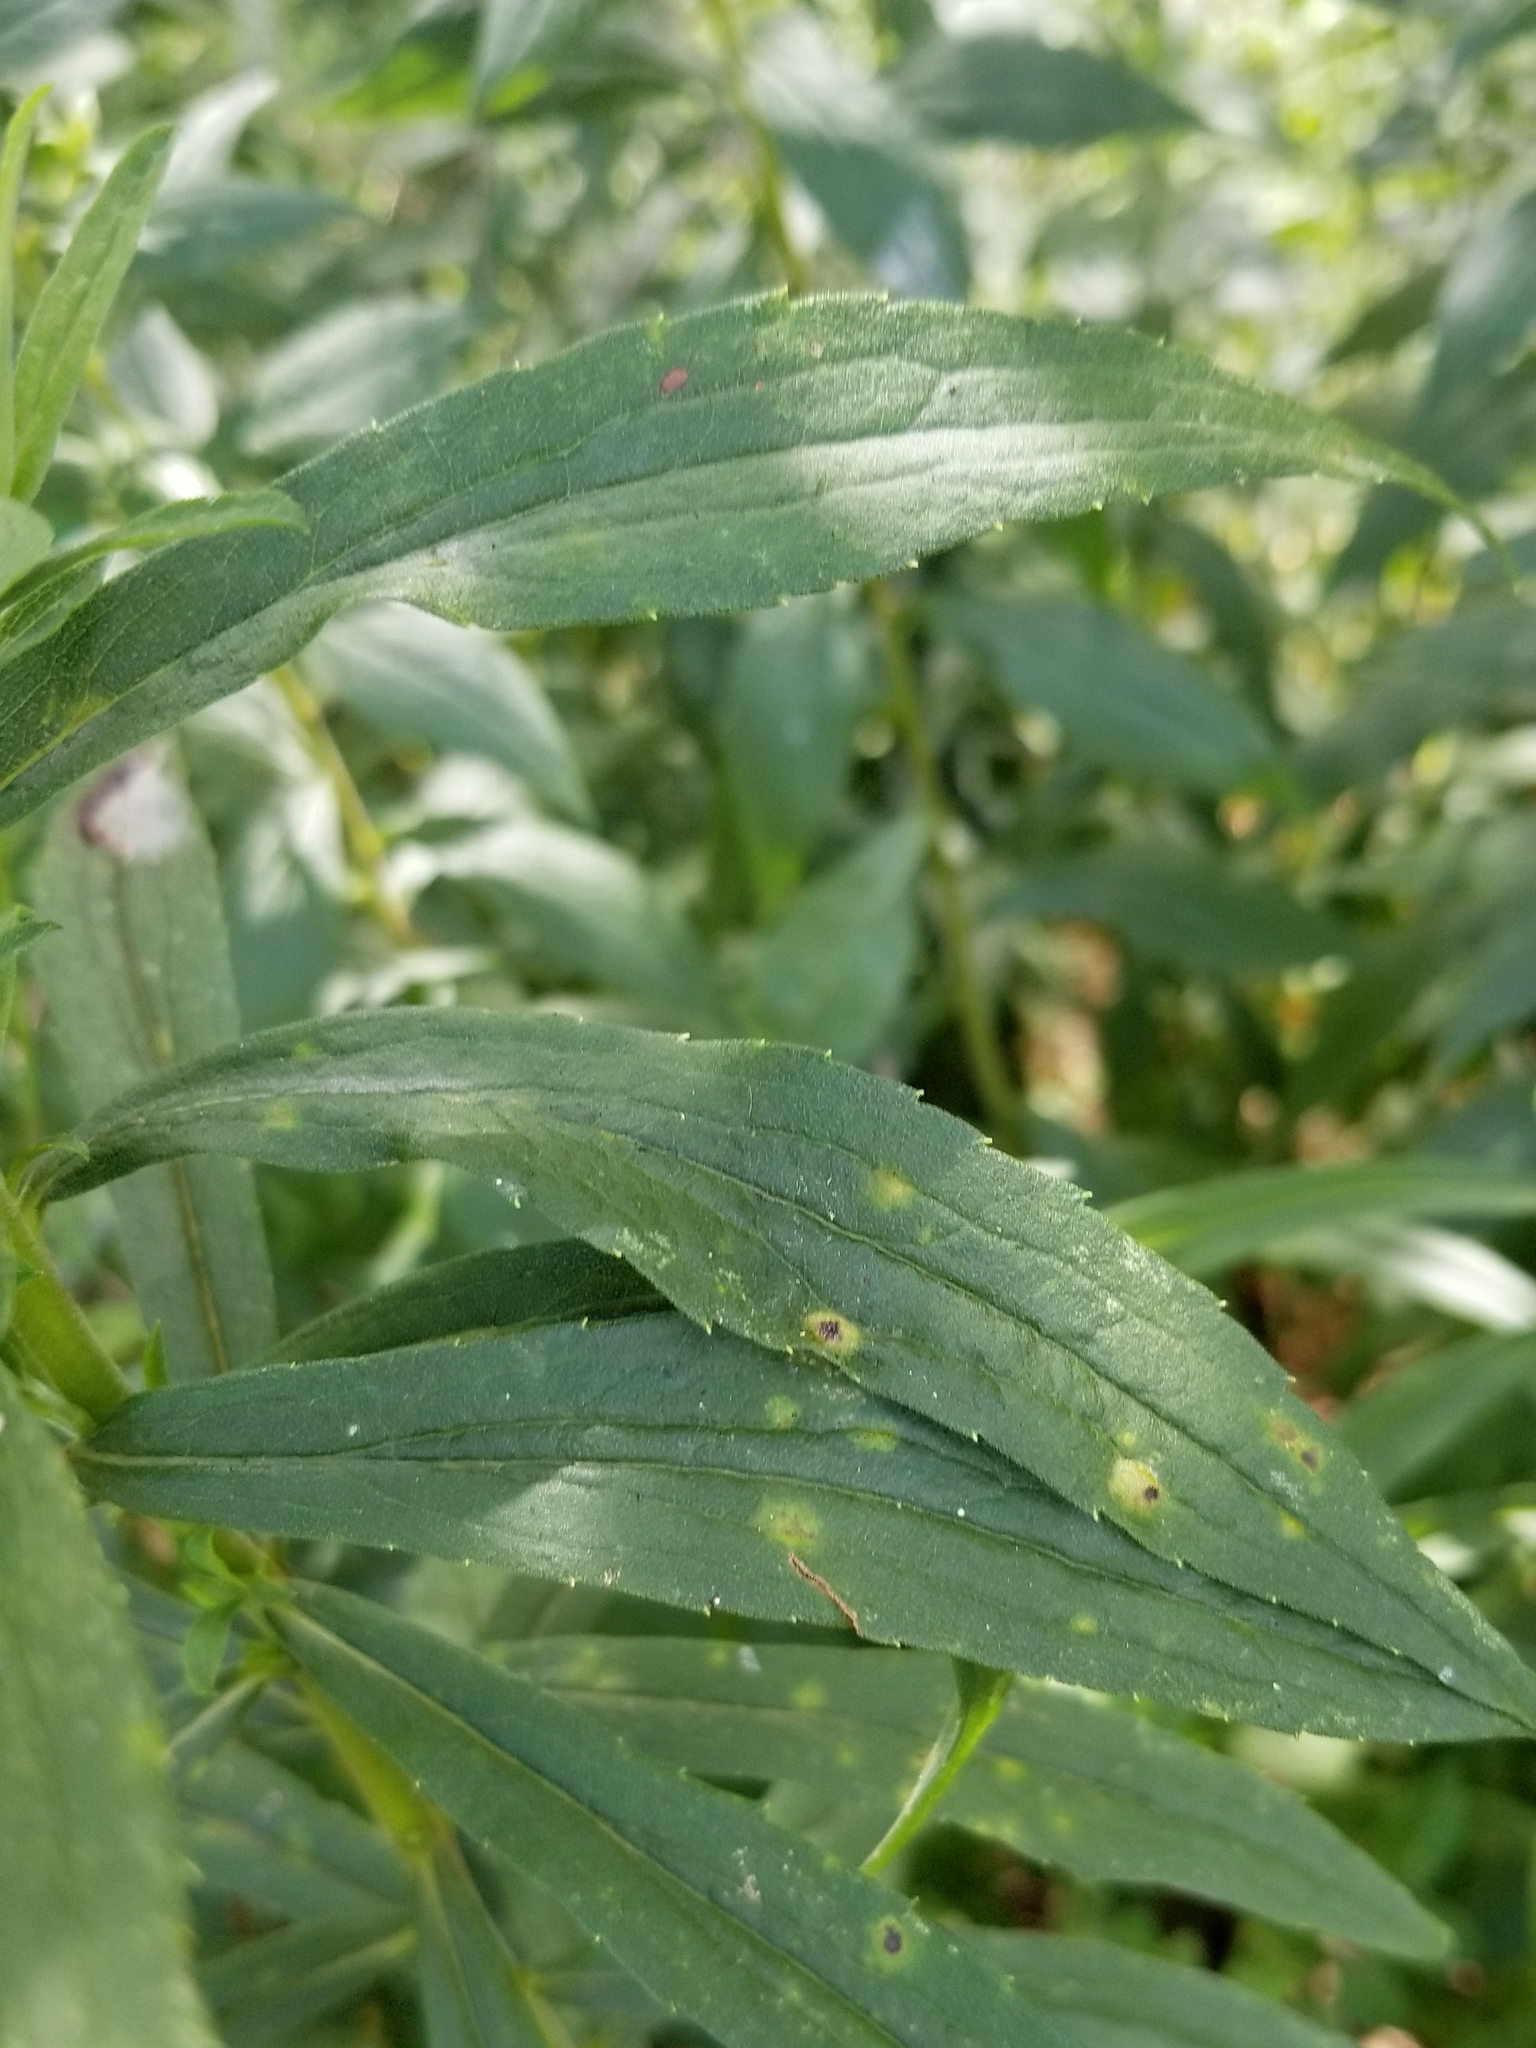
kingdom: Animalia
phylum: Arthropoda
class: Insecta
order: Diptera
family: Cecidomyiidae
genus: Asphondylia
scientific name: Asphondylia solidaginis
